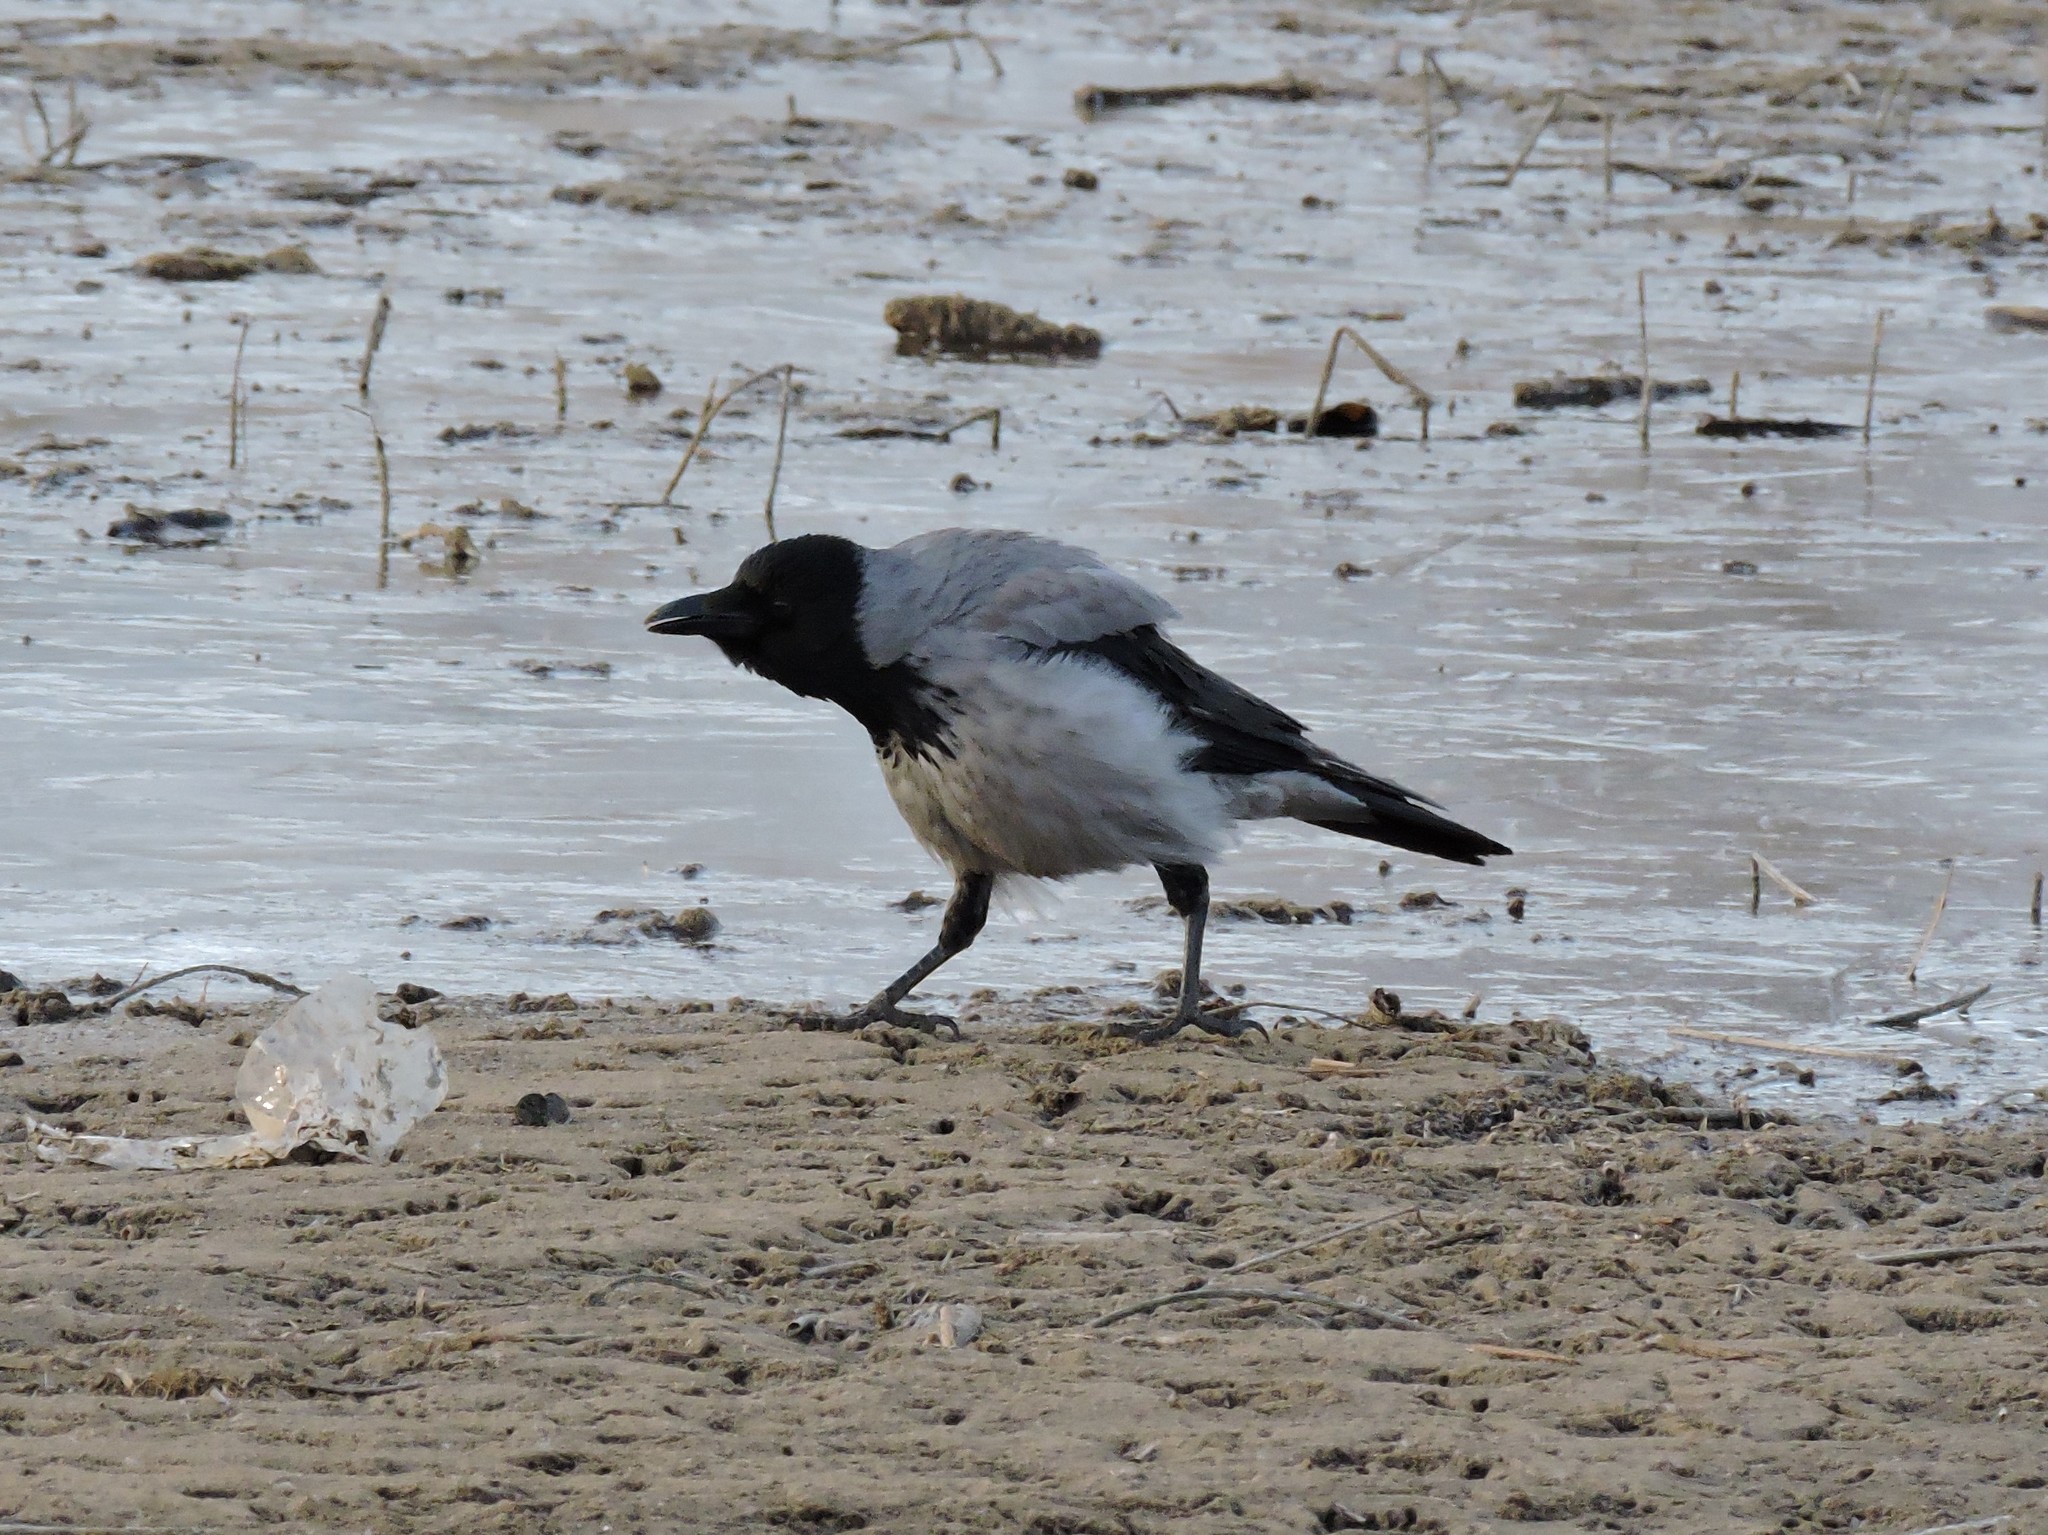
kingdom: Animalia
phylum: Chordata
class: Aves
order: Passeriformes
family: Corvidae
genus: Corvus
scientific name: Corvus cornix
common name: Hooded crow
